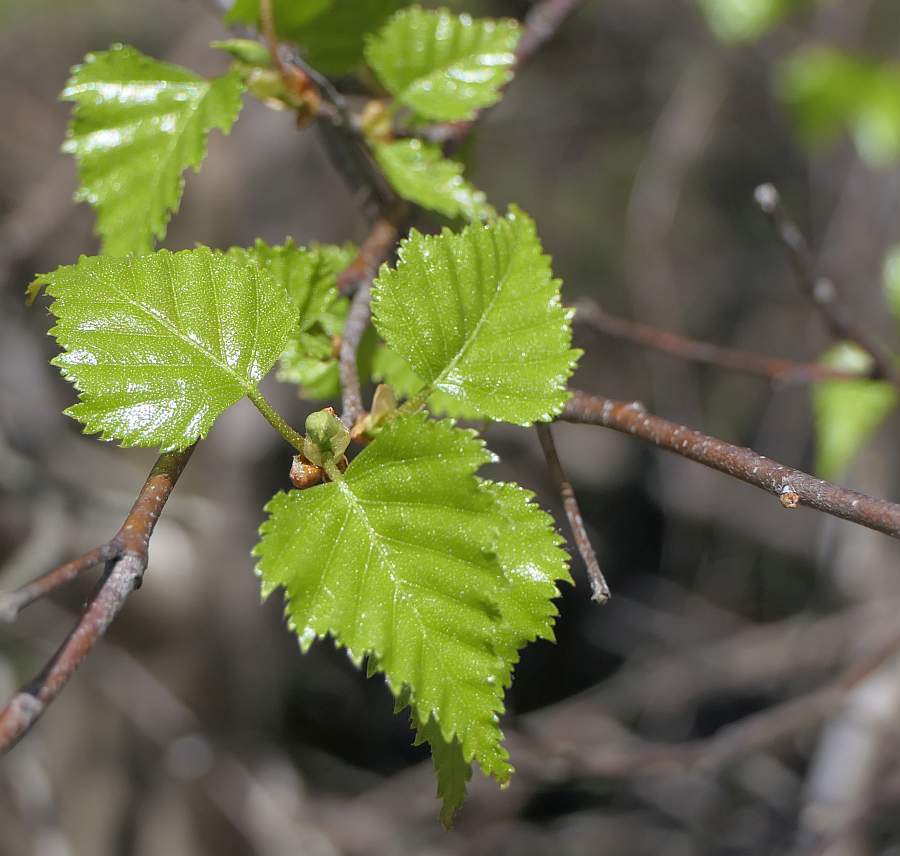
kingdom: Plantae
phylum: Tracheophyta
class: Magnoliopsida
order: Fagales
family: Betulaceae
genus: Betula
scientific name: Betula populifolia
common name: Fire birch
